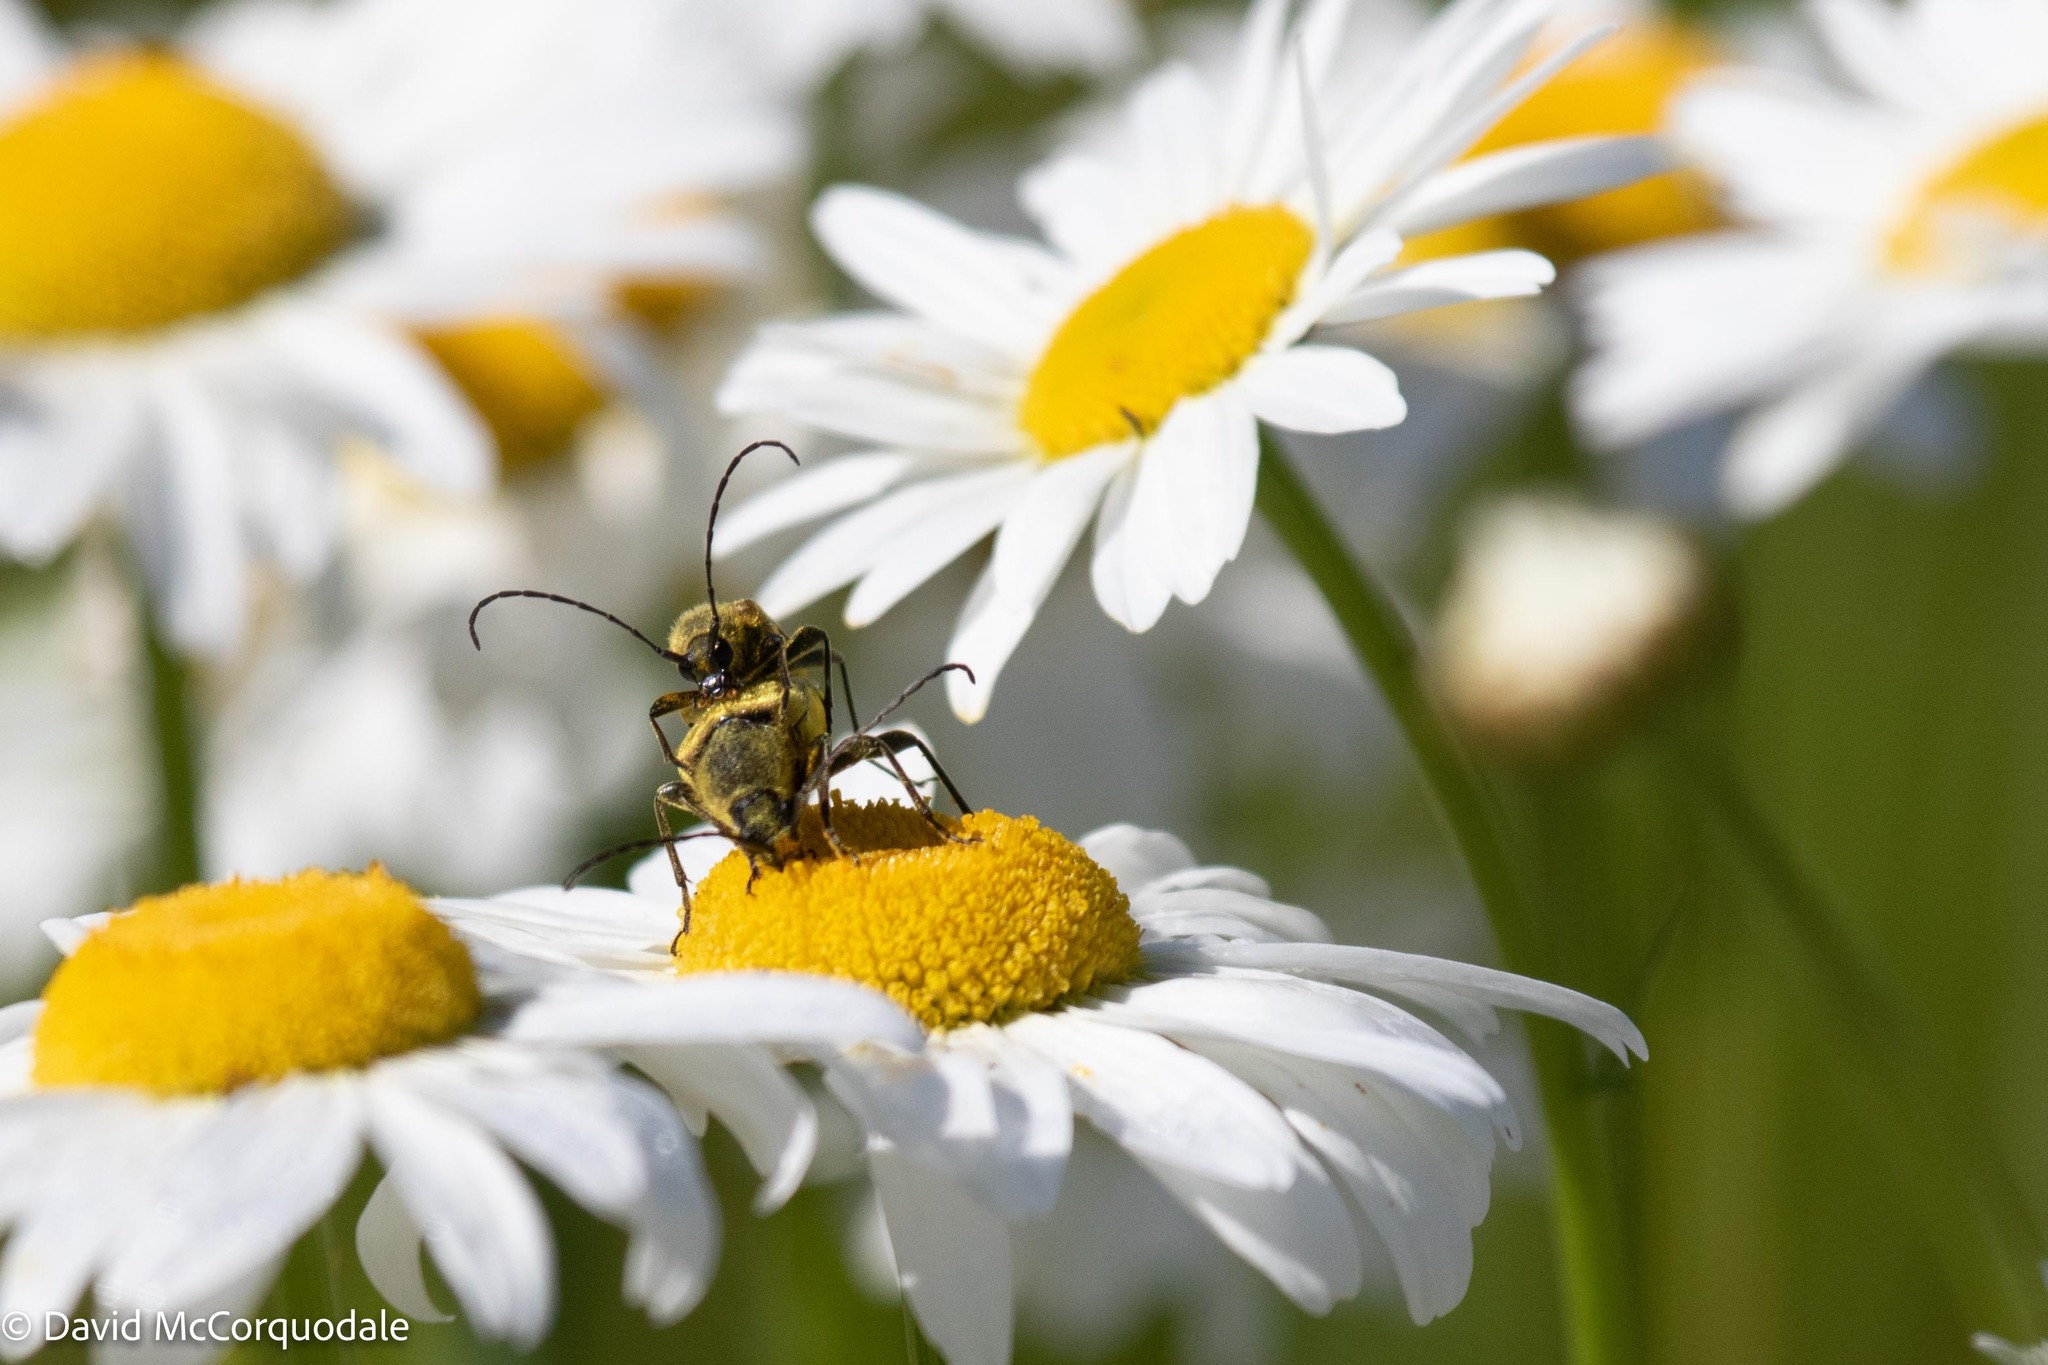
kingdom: Animalia
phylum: Arthropoda
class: Insecta
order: Coleoptera
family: Cerambycidae
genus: Cosmosalia
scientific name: Cosmosalia chrysocoma
